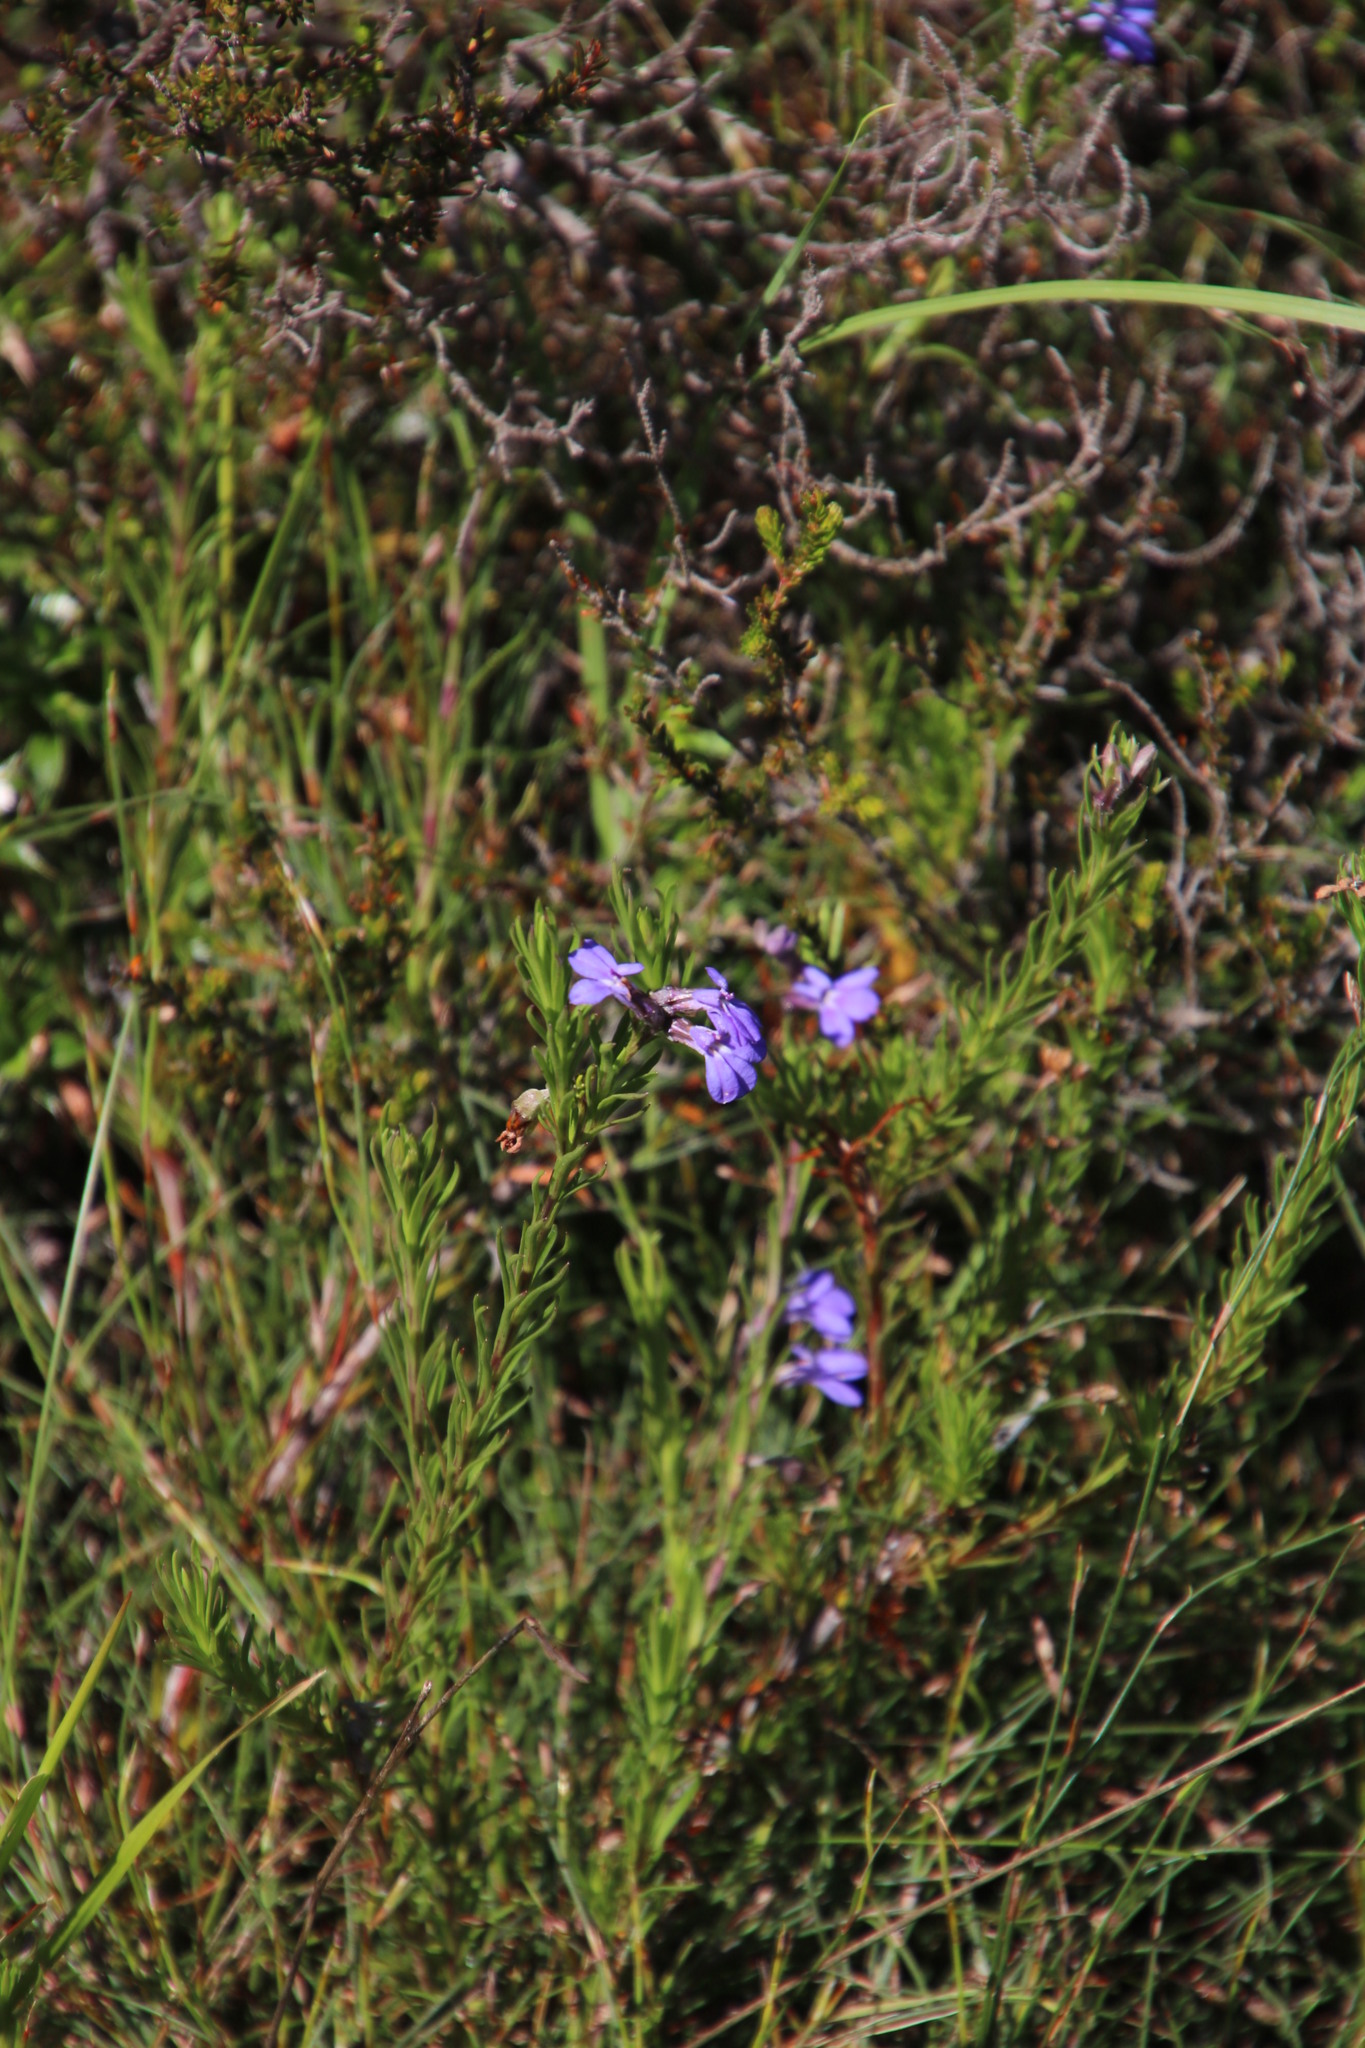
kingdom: Plantae
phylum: Tracheophyta
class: Magnoliopsida
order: Asterales
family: Campanulaceae
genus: Lobelia
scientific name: Lobelia pinifolia
